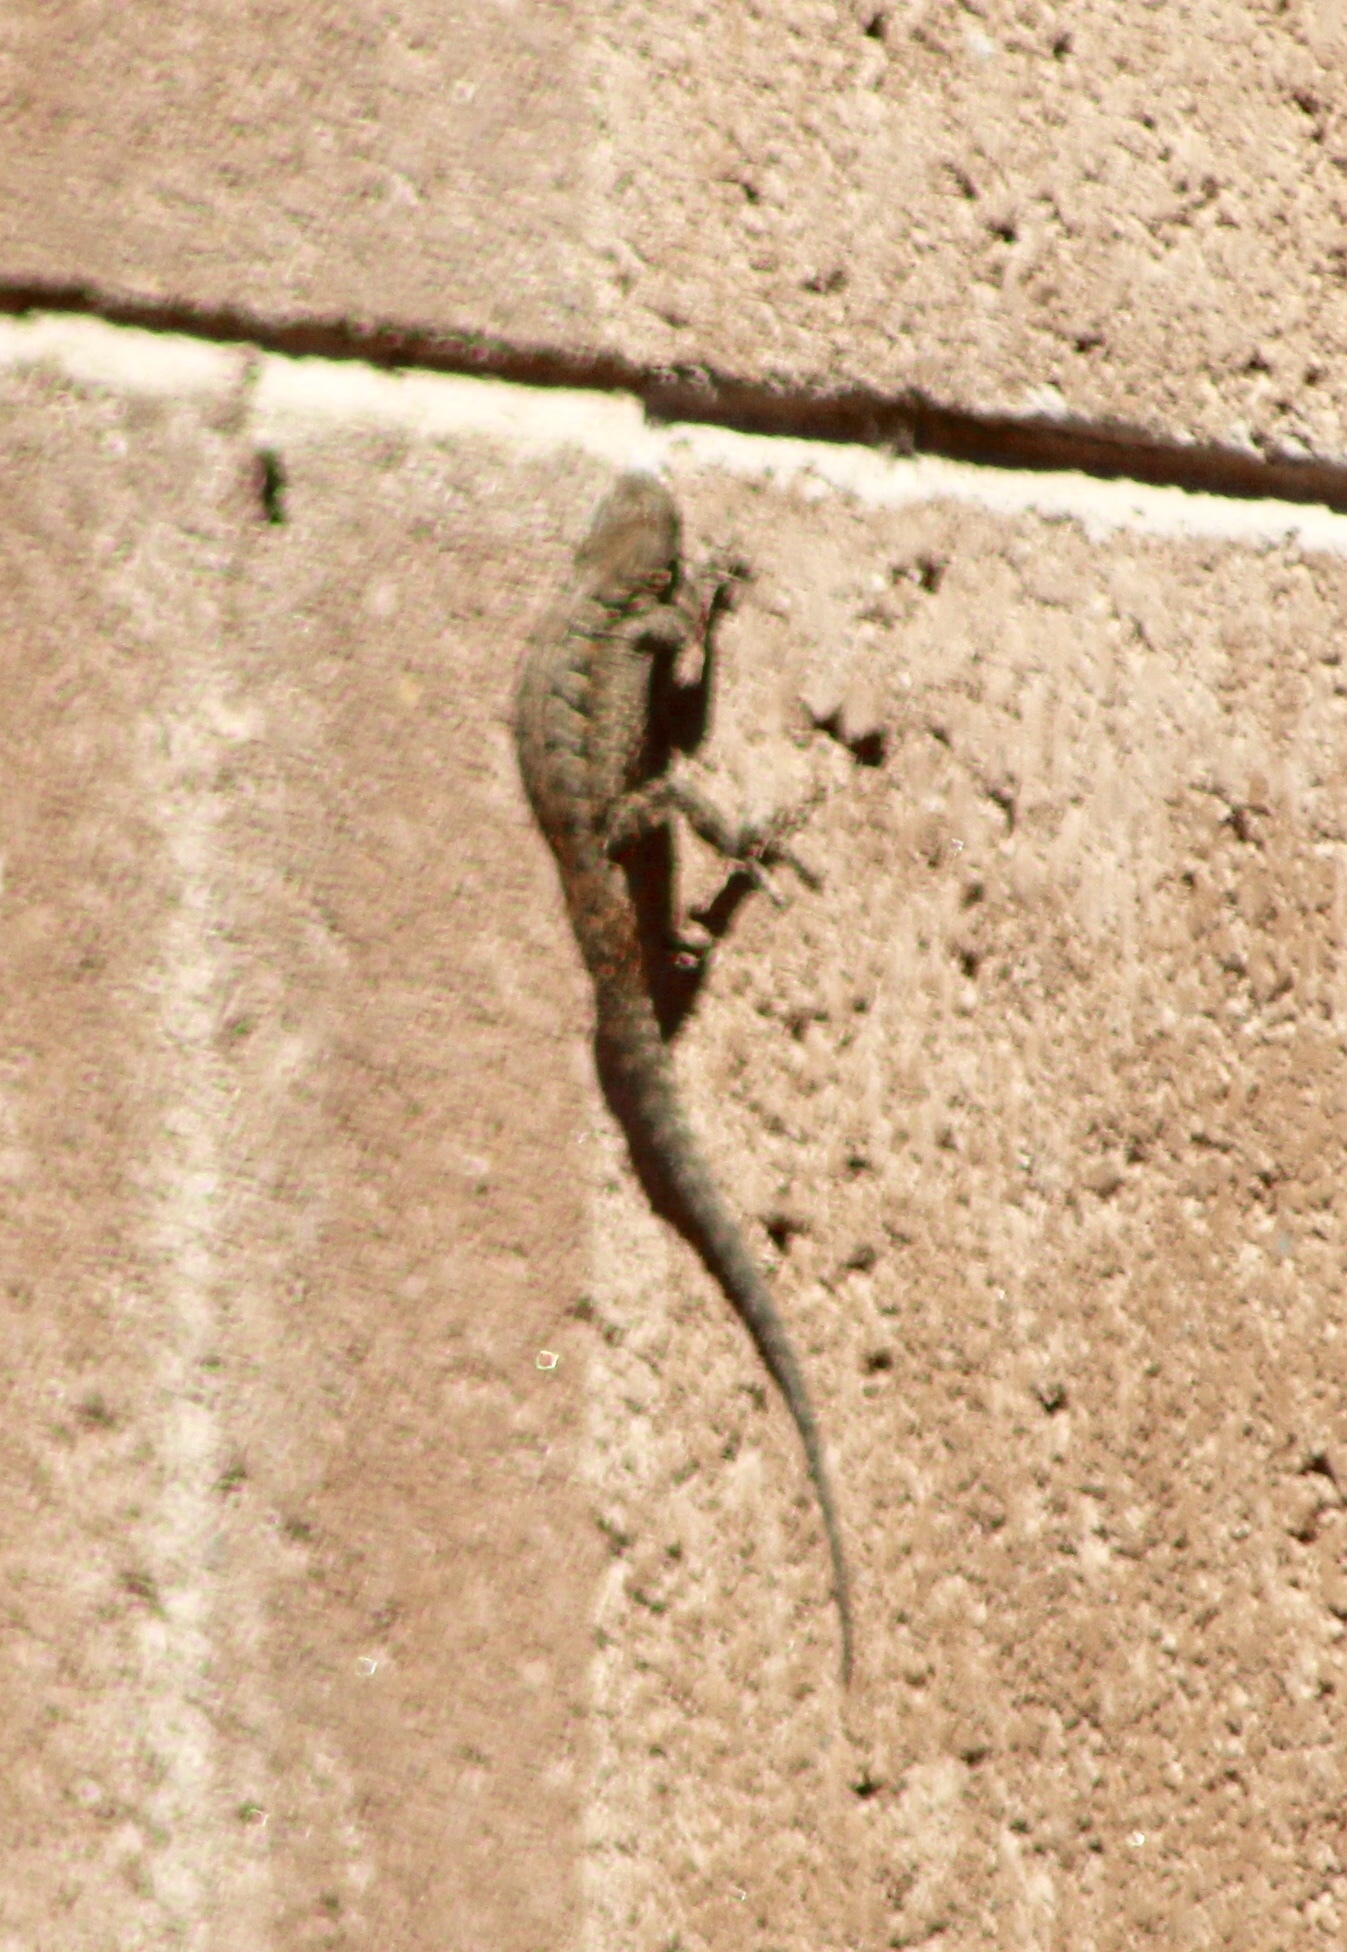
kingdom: Animalia
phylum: Chordata
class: Squamata
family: Phrynosomatidae
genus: Urosaurus
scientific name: Urosaurus ornatus
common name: Ornate tree lizard
